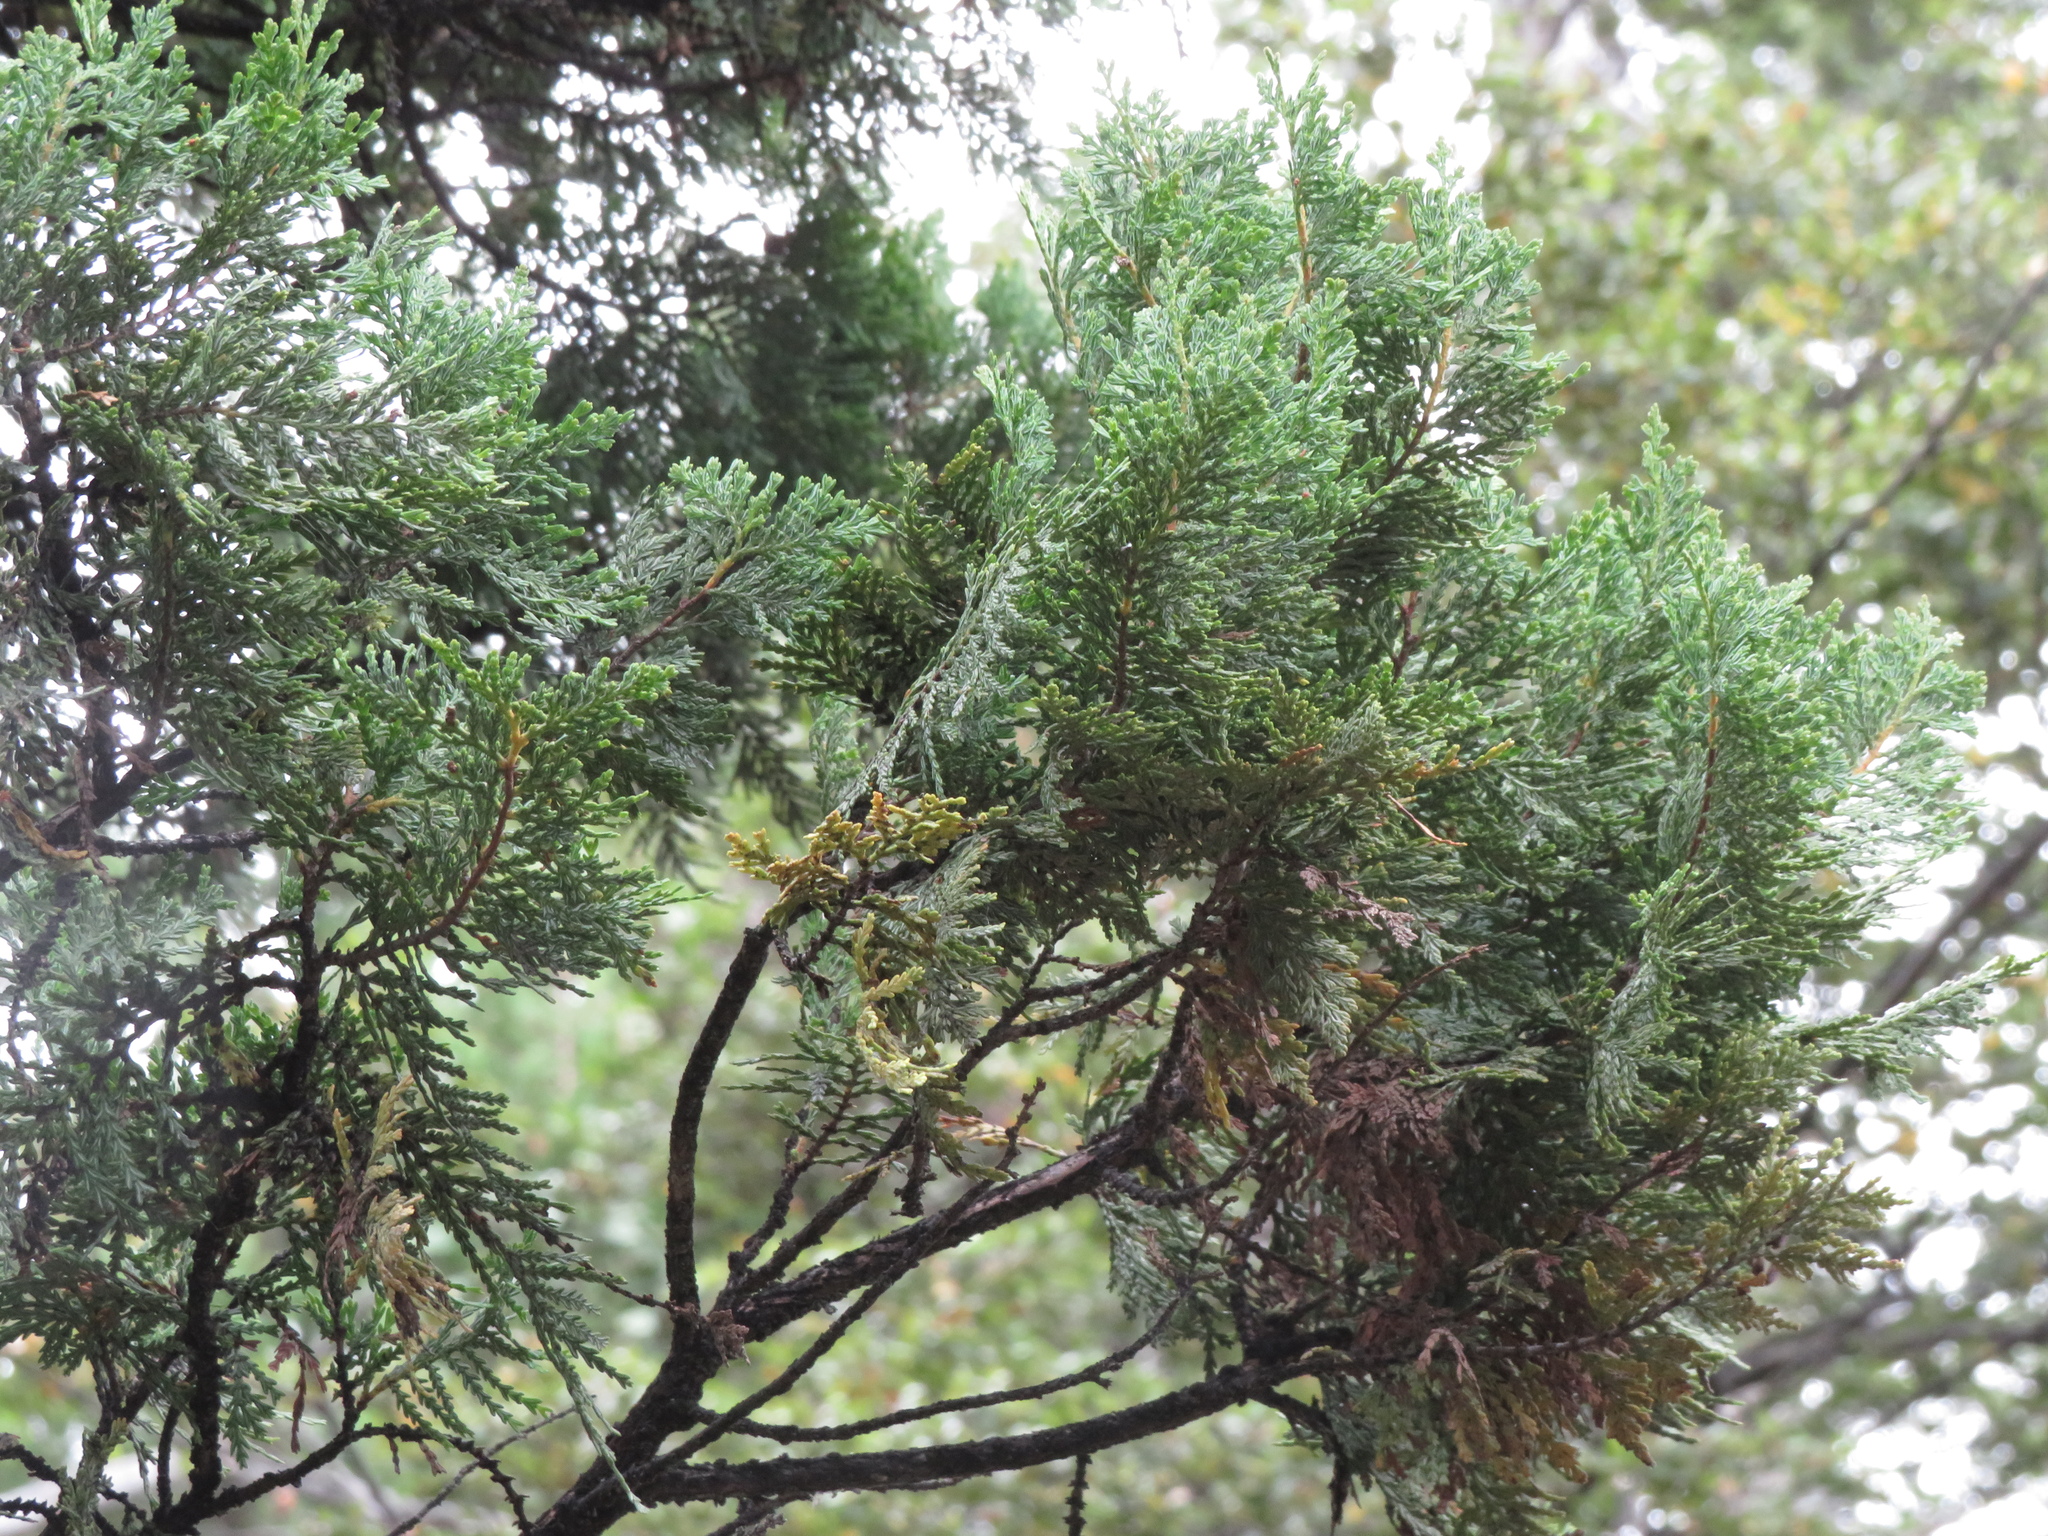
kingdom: Plantae
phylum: Tracheophyta
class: Pinopsida
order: Pinales
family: Cupressaceae
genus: Austrocedrus
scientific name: Austrocedrus chilensis
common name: Chilean incense-cedar
